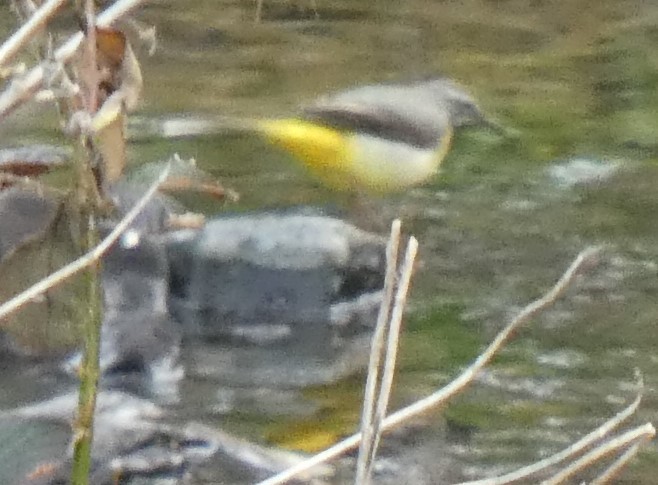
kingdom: Animalia
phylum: Chordata
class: Aves
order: Passeriformes
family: Motacillidae
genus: Motacilla
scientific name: Motacilla cinerea
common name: Grey wagtail
